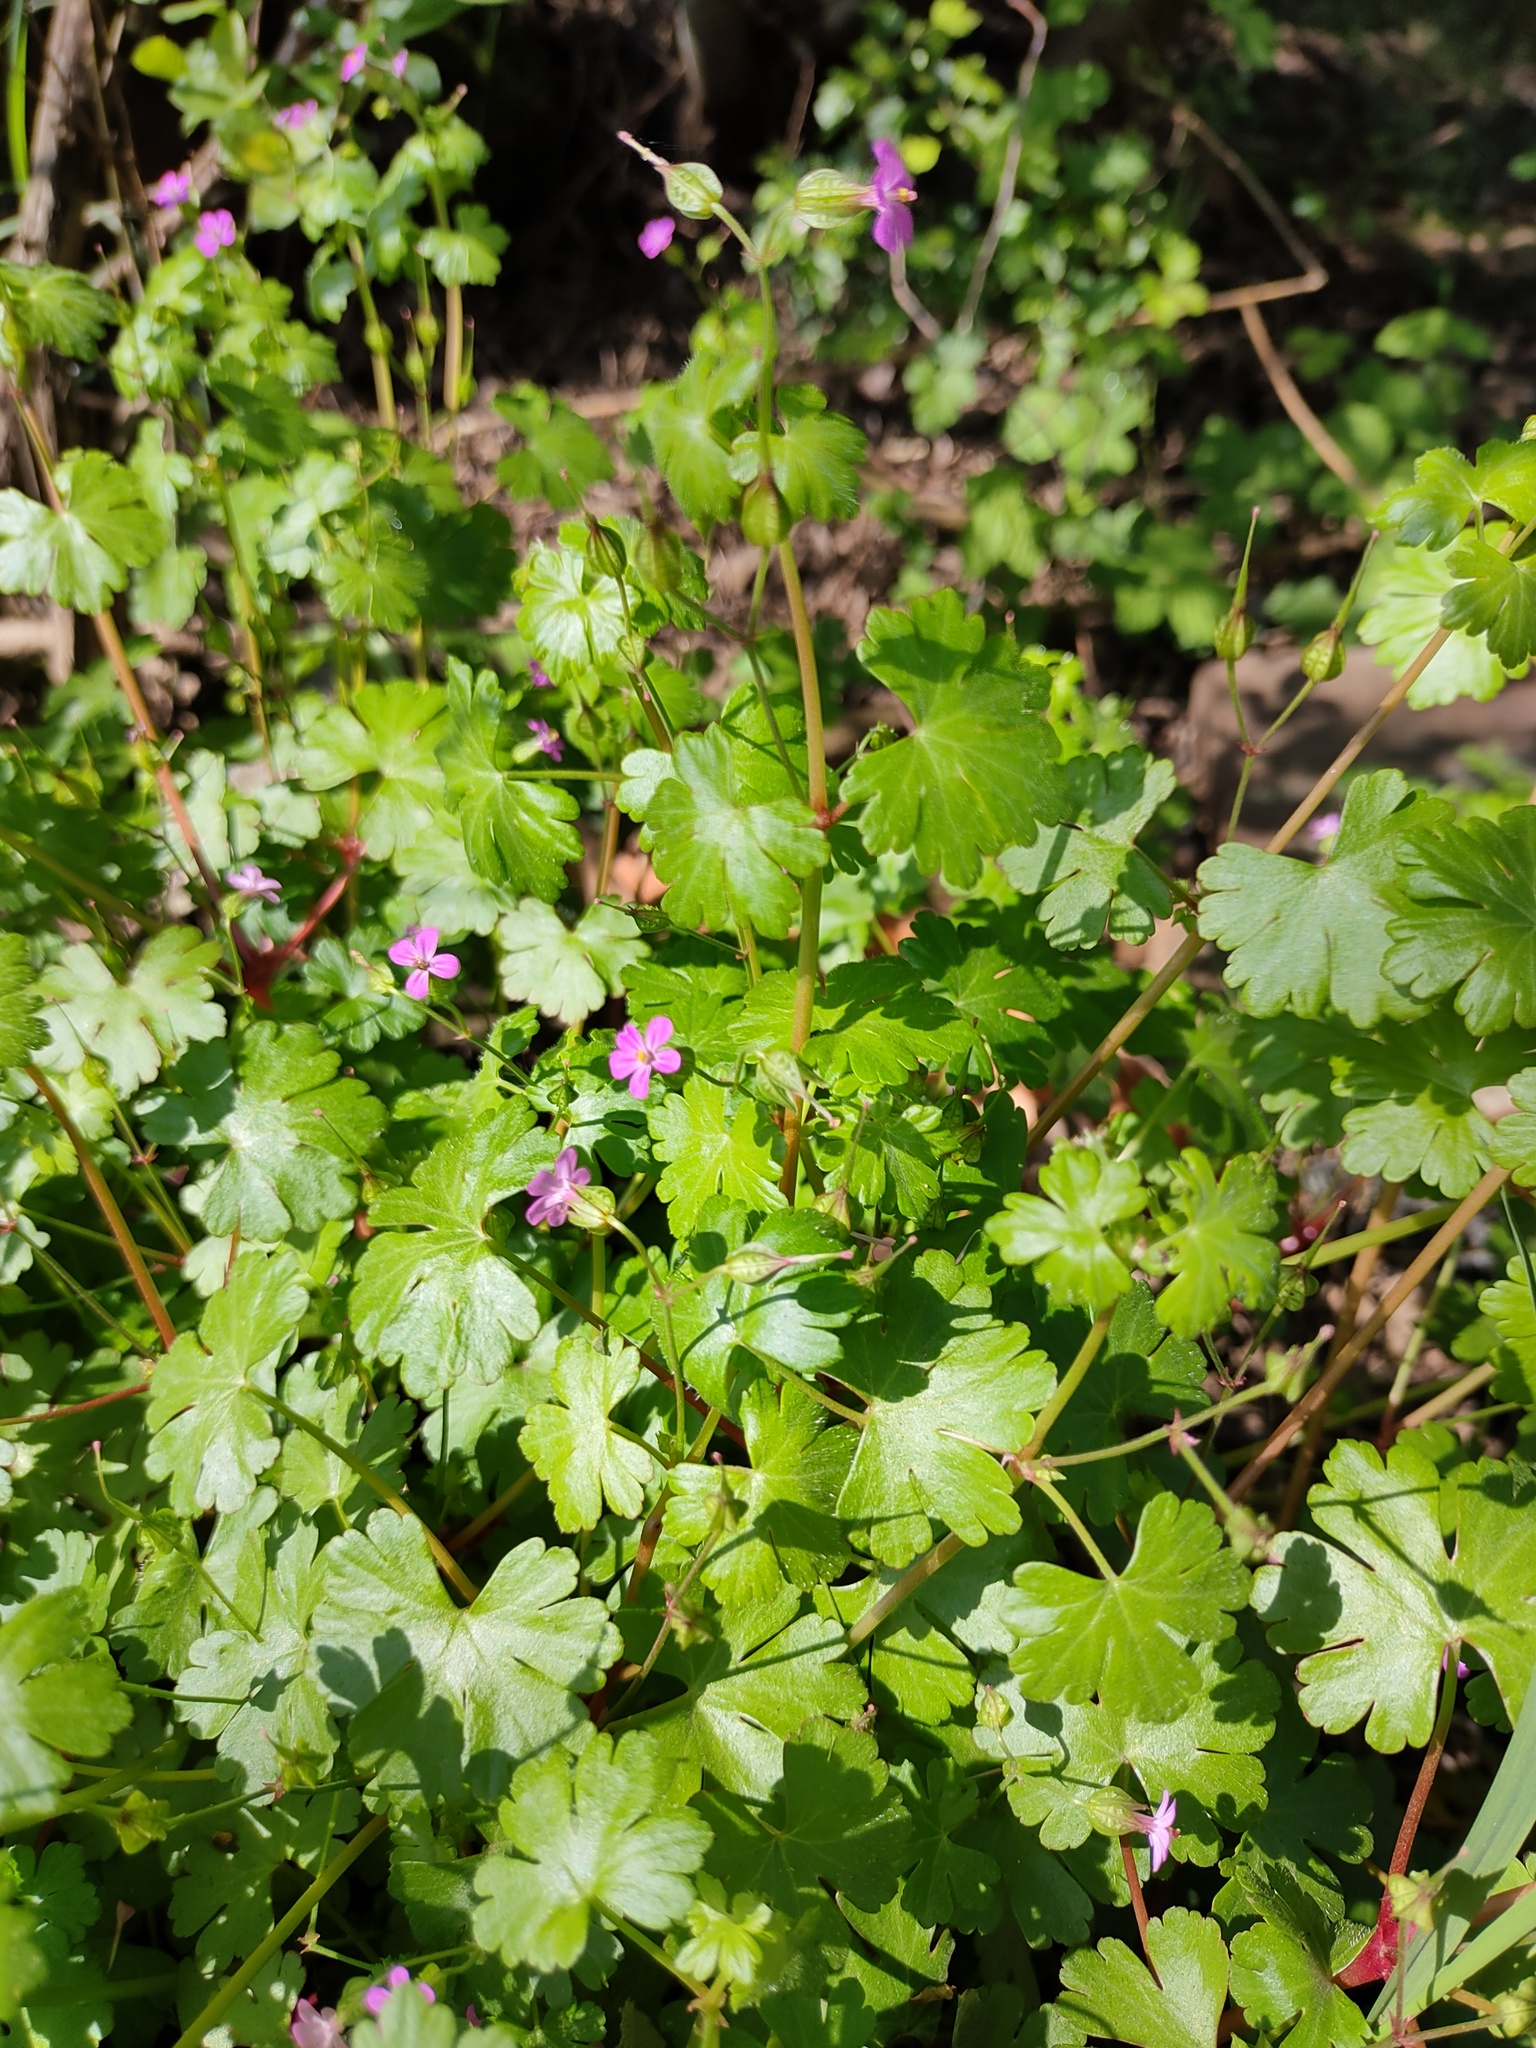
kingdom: Plantae
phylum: Tracheophyta
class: Magnoliopsida
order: Geraniales
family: Geraniaceae
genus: Geranium
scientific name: Geranium lucidum
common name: Shining crane's-bill
